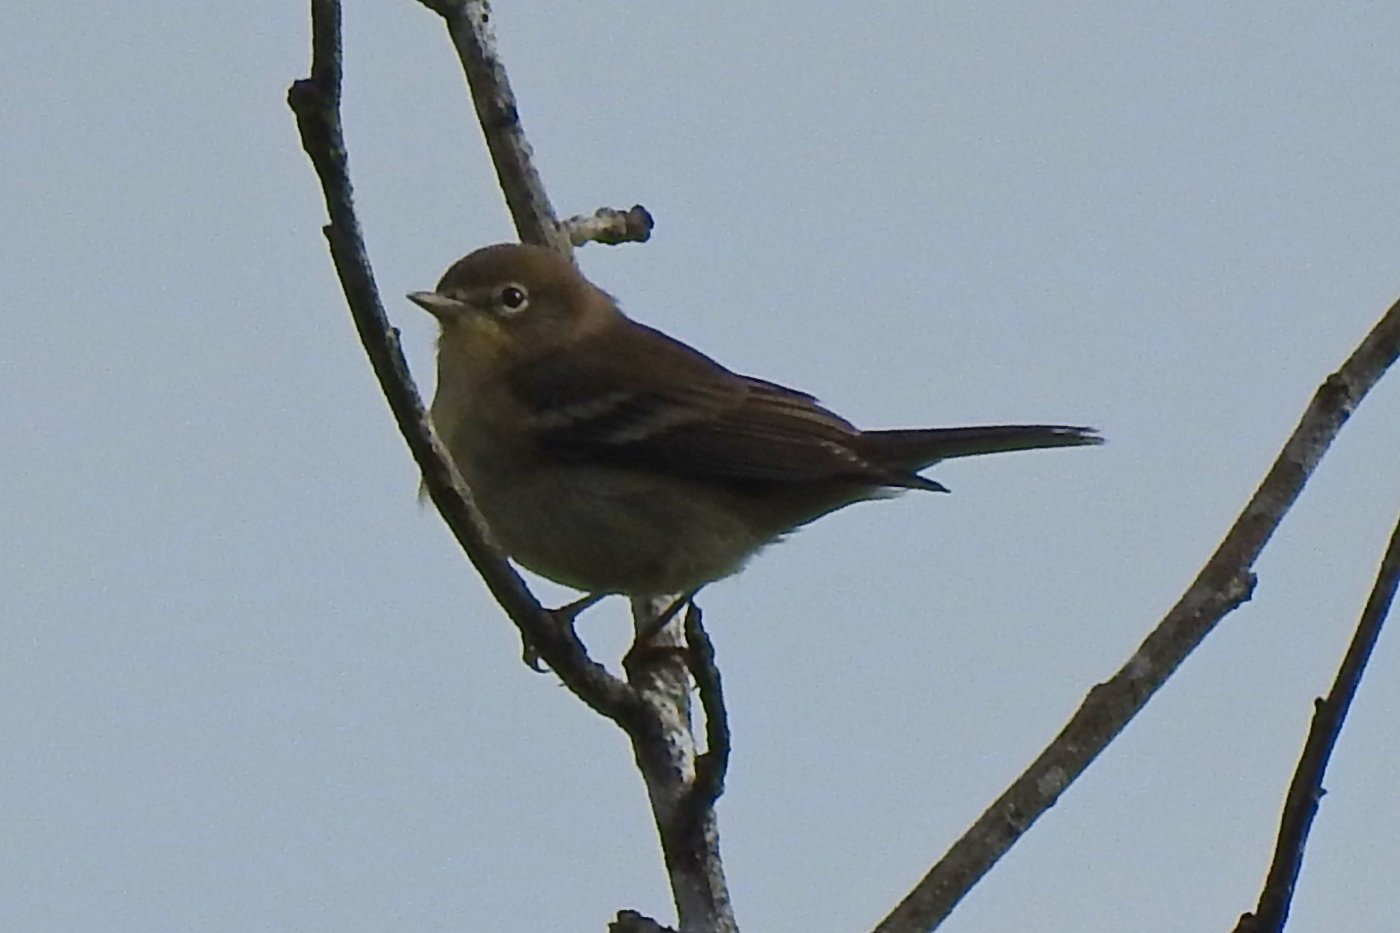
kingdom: Animalia
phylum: Chordata
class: Aves
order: Passeriformes
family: Parulidae
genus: Setophaga
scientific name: Setophaga pinus
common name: Pine warbler
